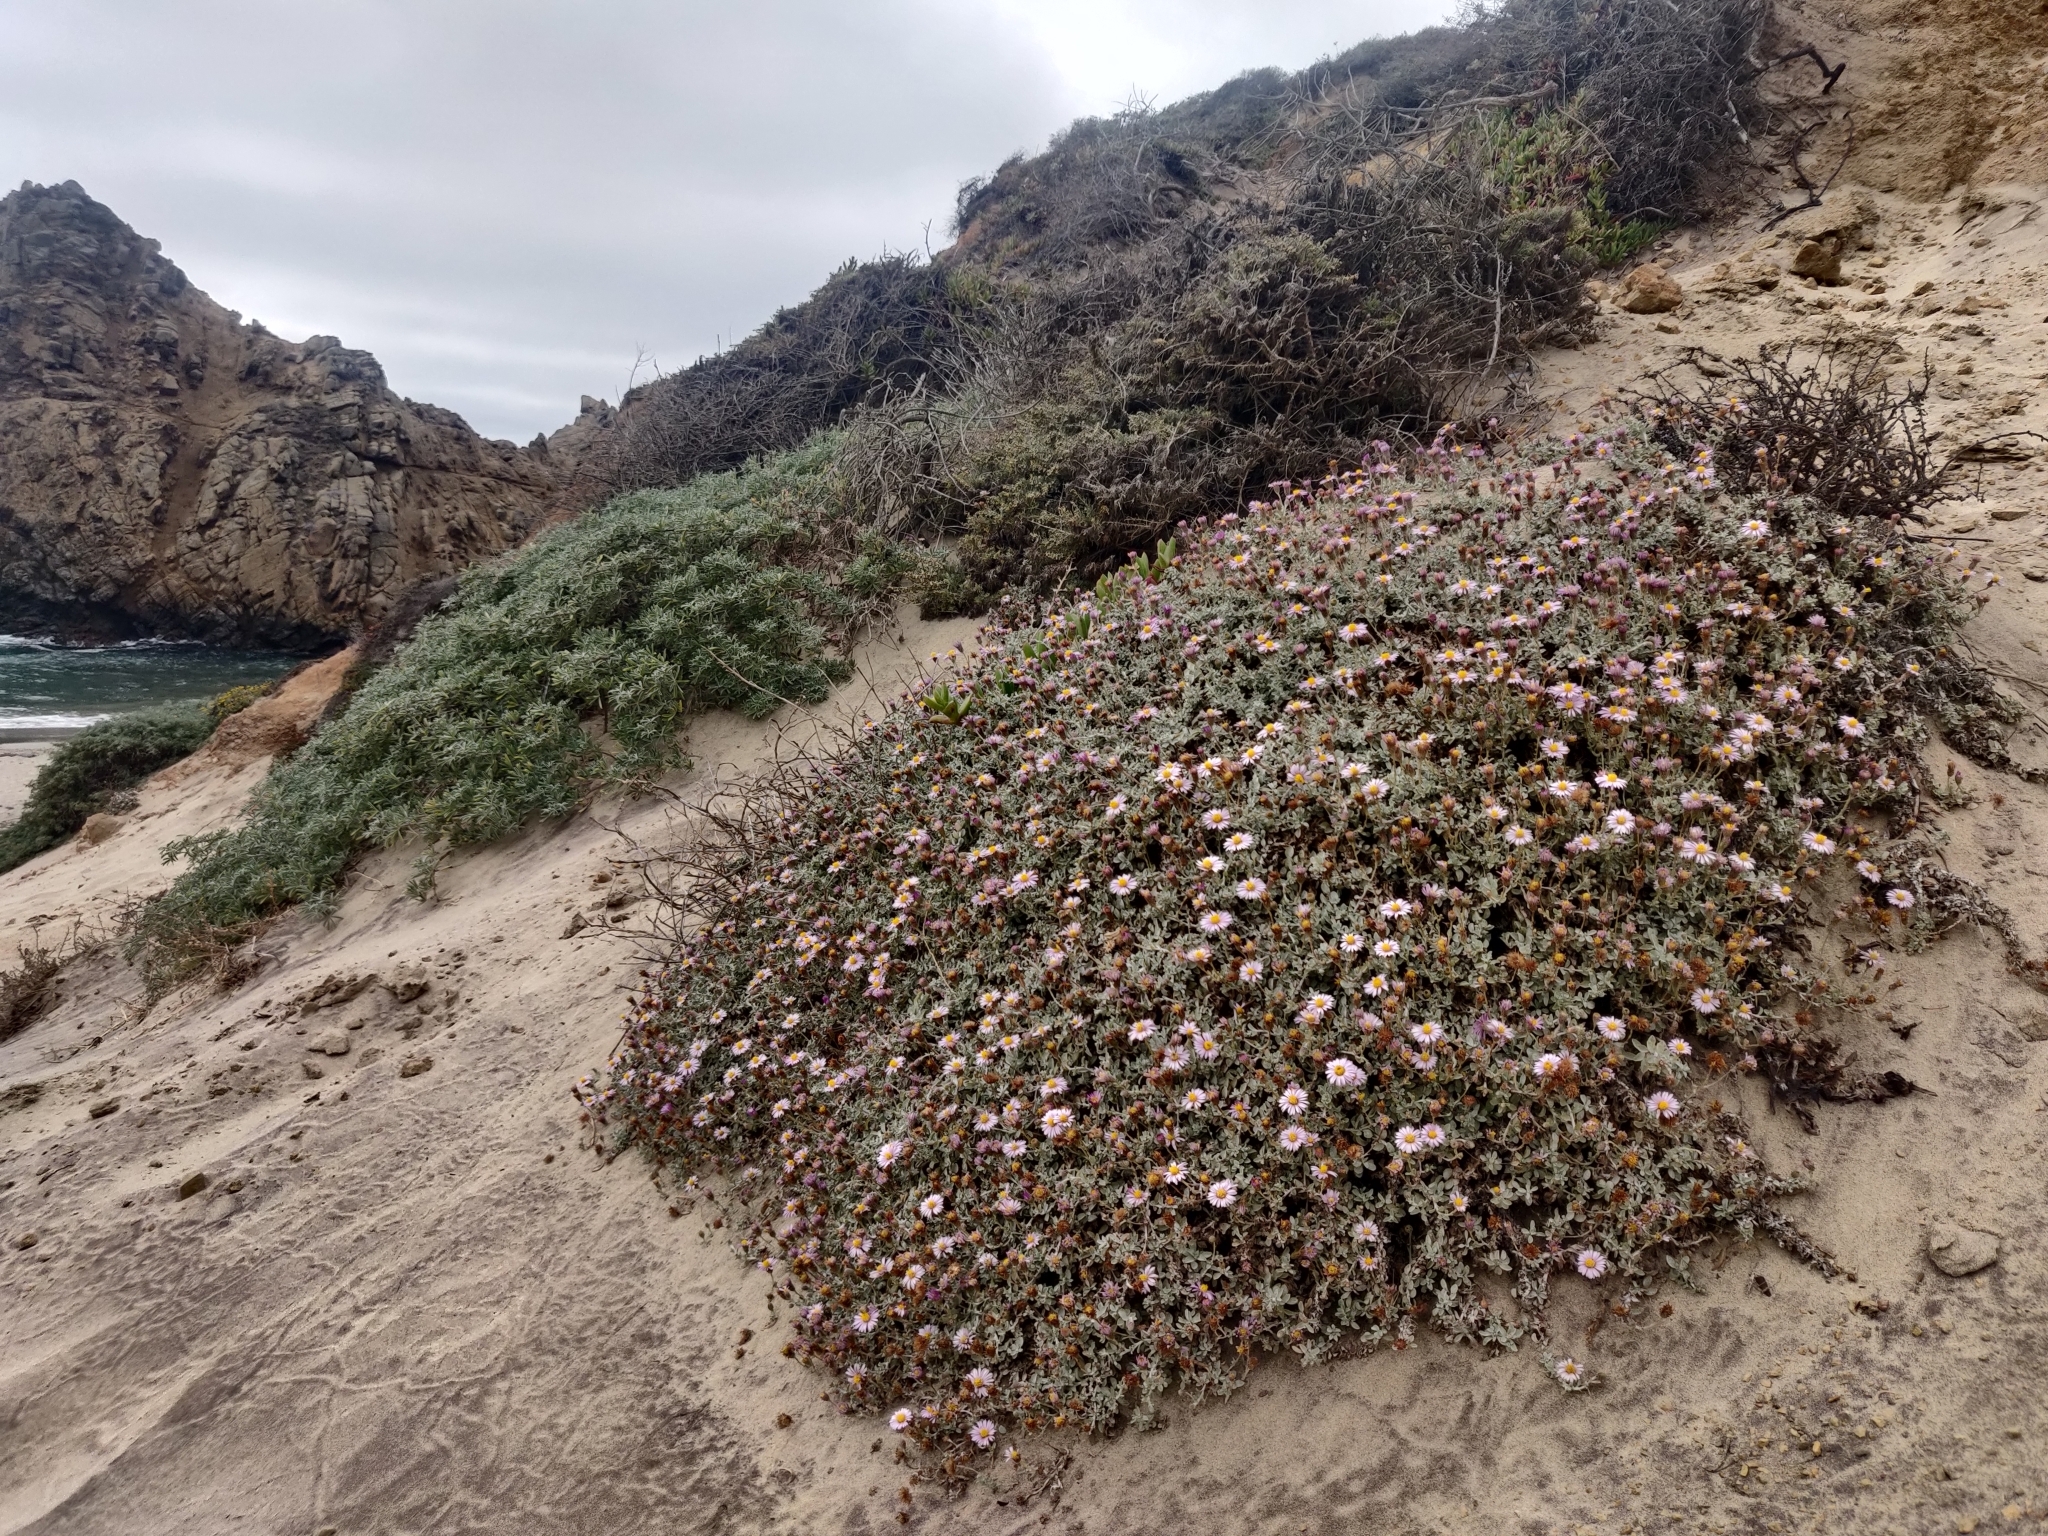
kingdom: Plantae
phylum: Tracheophyta
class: Magnoliopsida
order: Asterales
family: Asteraceae
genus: Corethrogyne
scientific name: Corethrogyne filaginifolia
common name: Sand-aster
